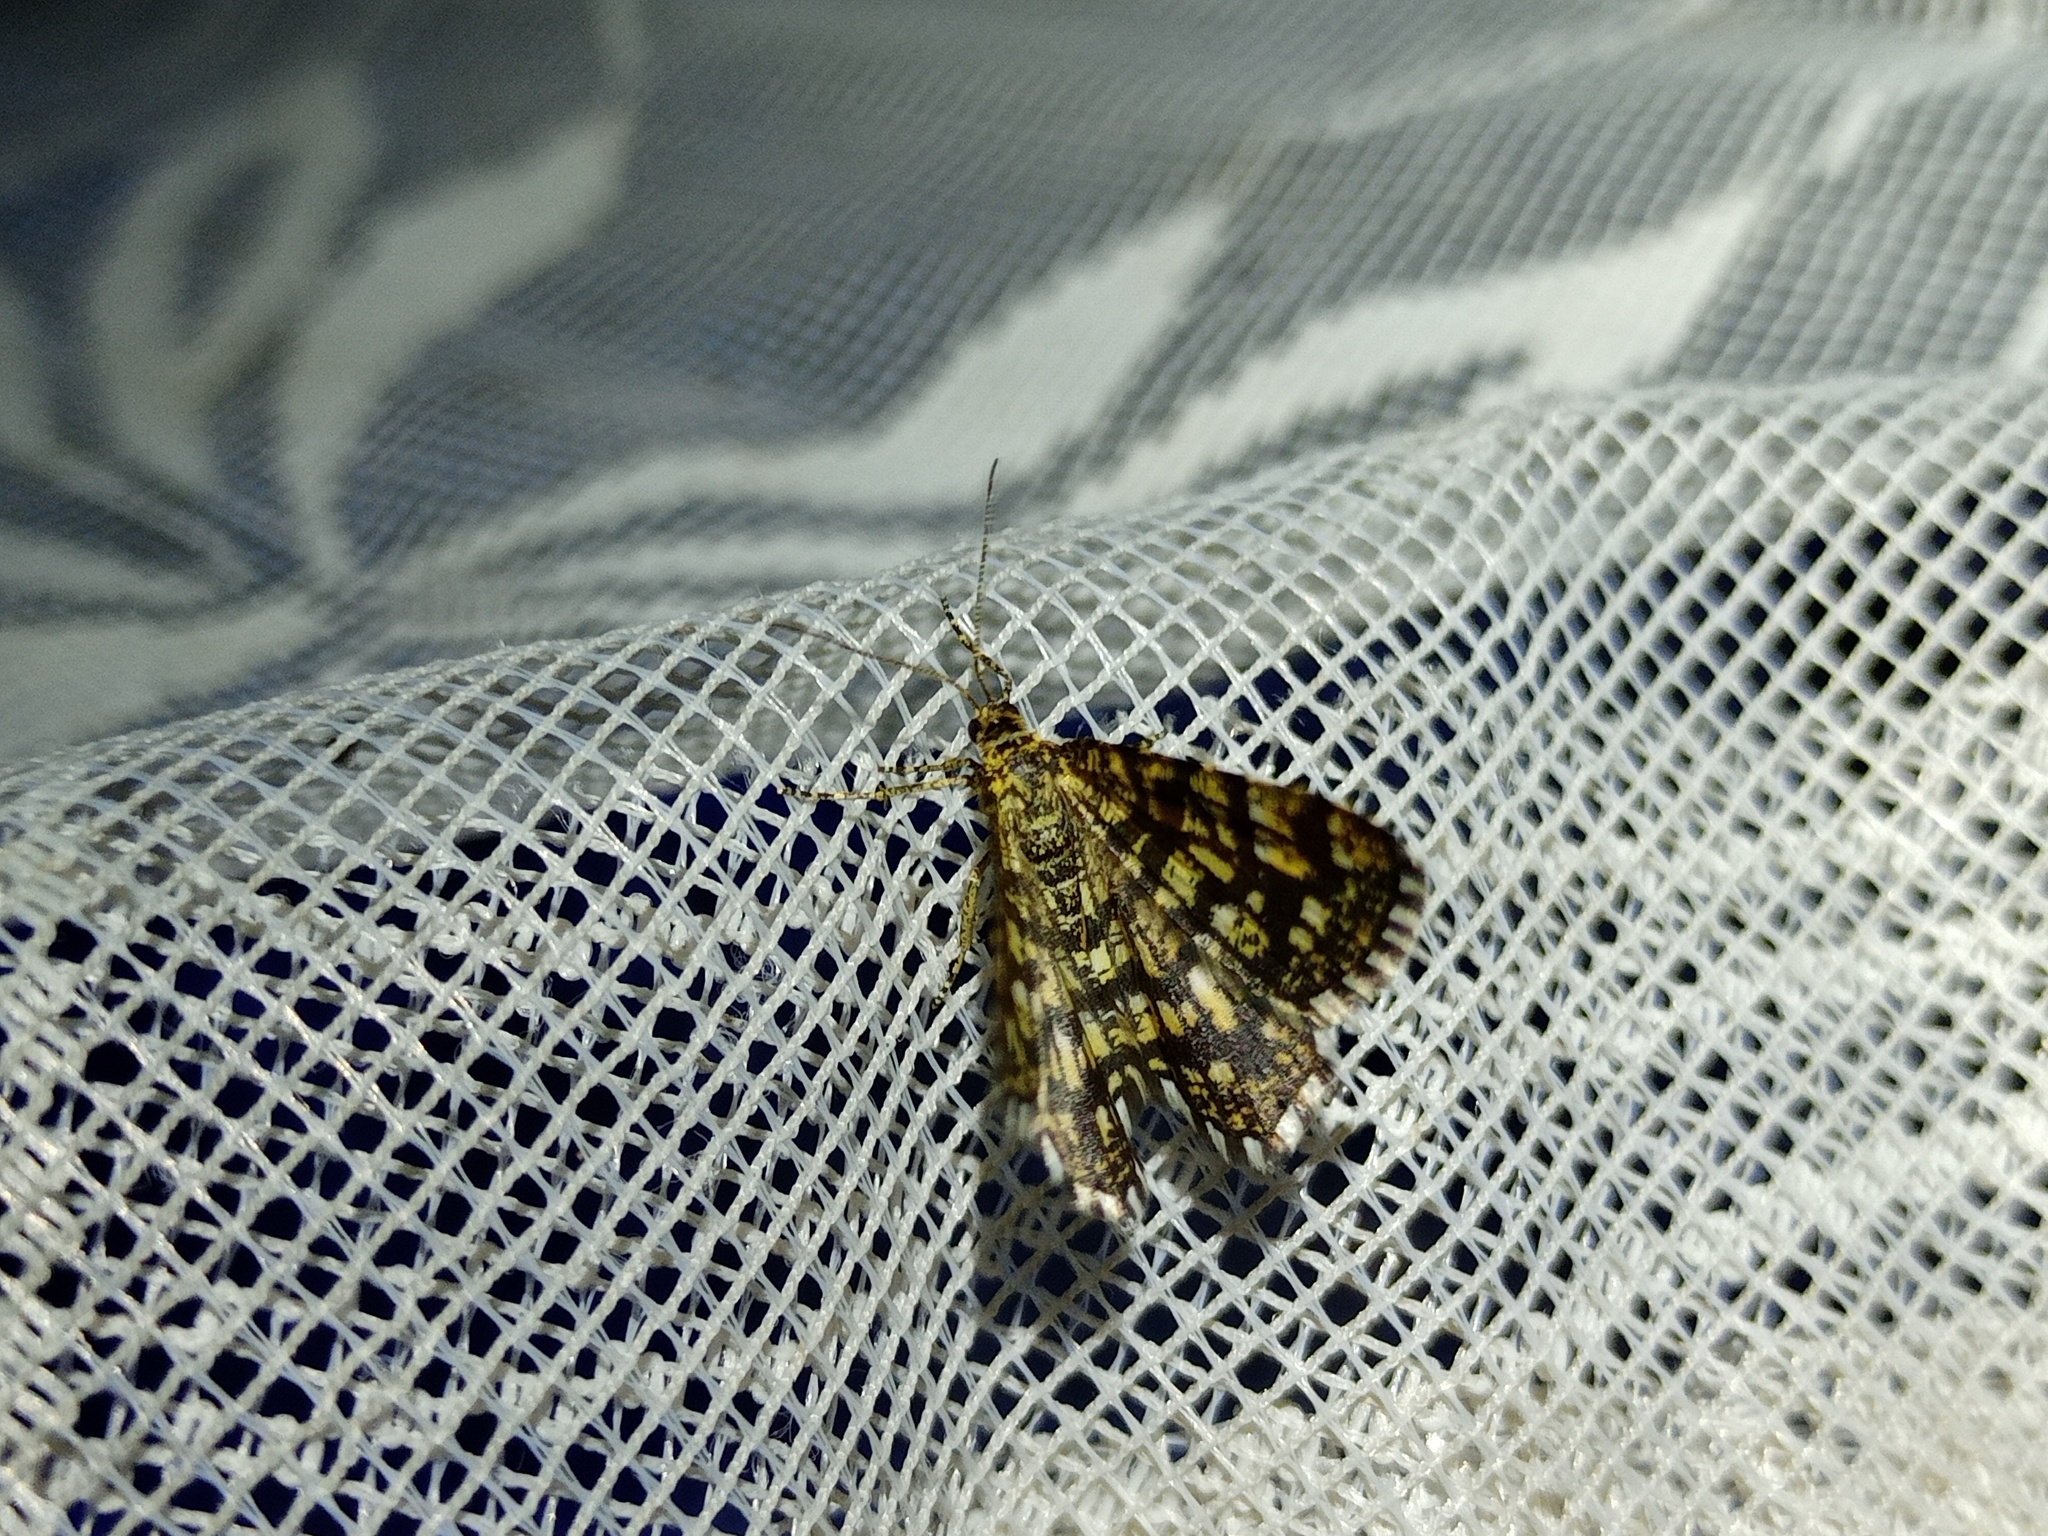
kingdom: Animalia
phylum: Arthropoda
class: Insecta
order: Lepidoptera
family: Geometridae
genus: Chiasmia
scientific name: Chiasmia clathrata
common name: Latticed heath
